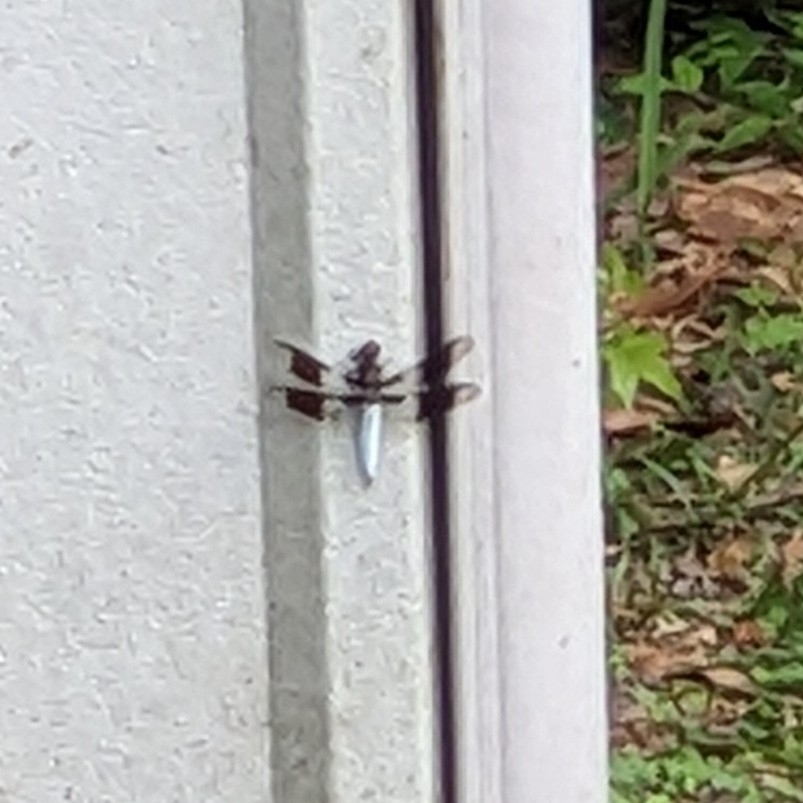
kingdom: Animalia
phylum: Arthropoda
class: Insecta
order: Odonata
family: Libellulidae
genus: Plathemis
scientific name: Plathemis lydia
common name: Common whitetail
